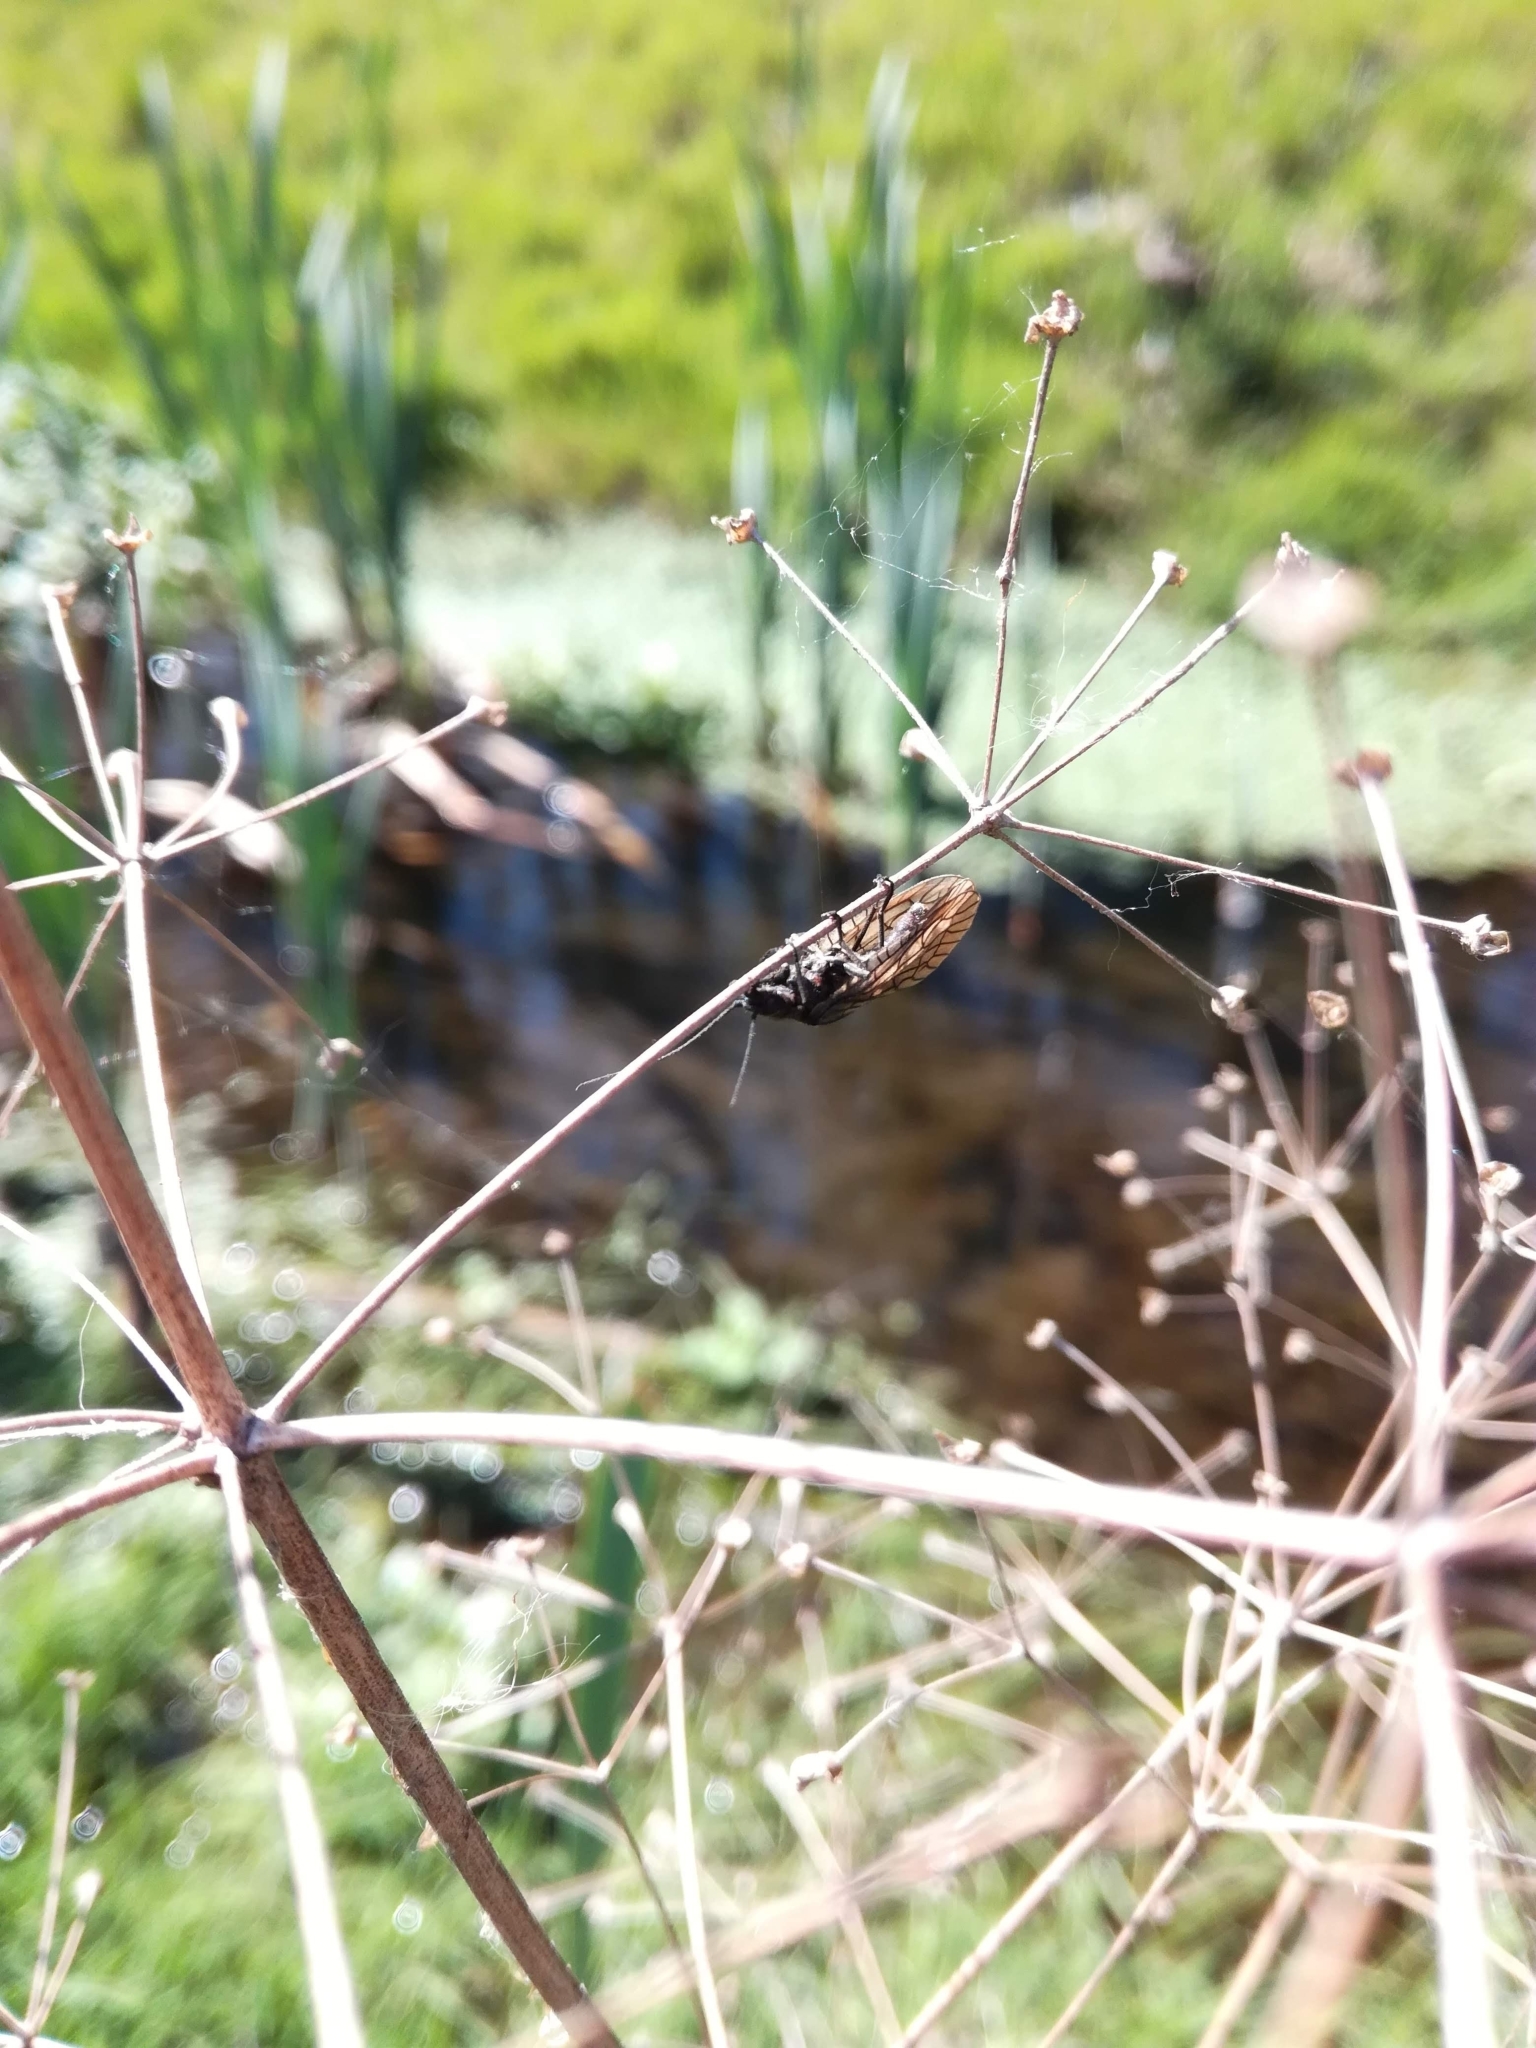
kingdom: Animalia
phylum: Arthropoda
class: Insecta
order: Megaloptera
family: Sialidae
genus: Sialis
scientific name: Sialis
